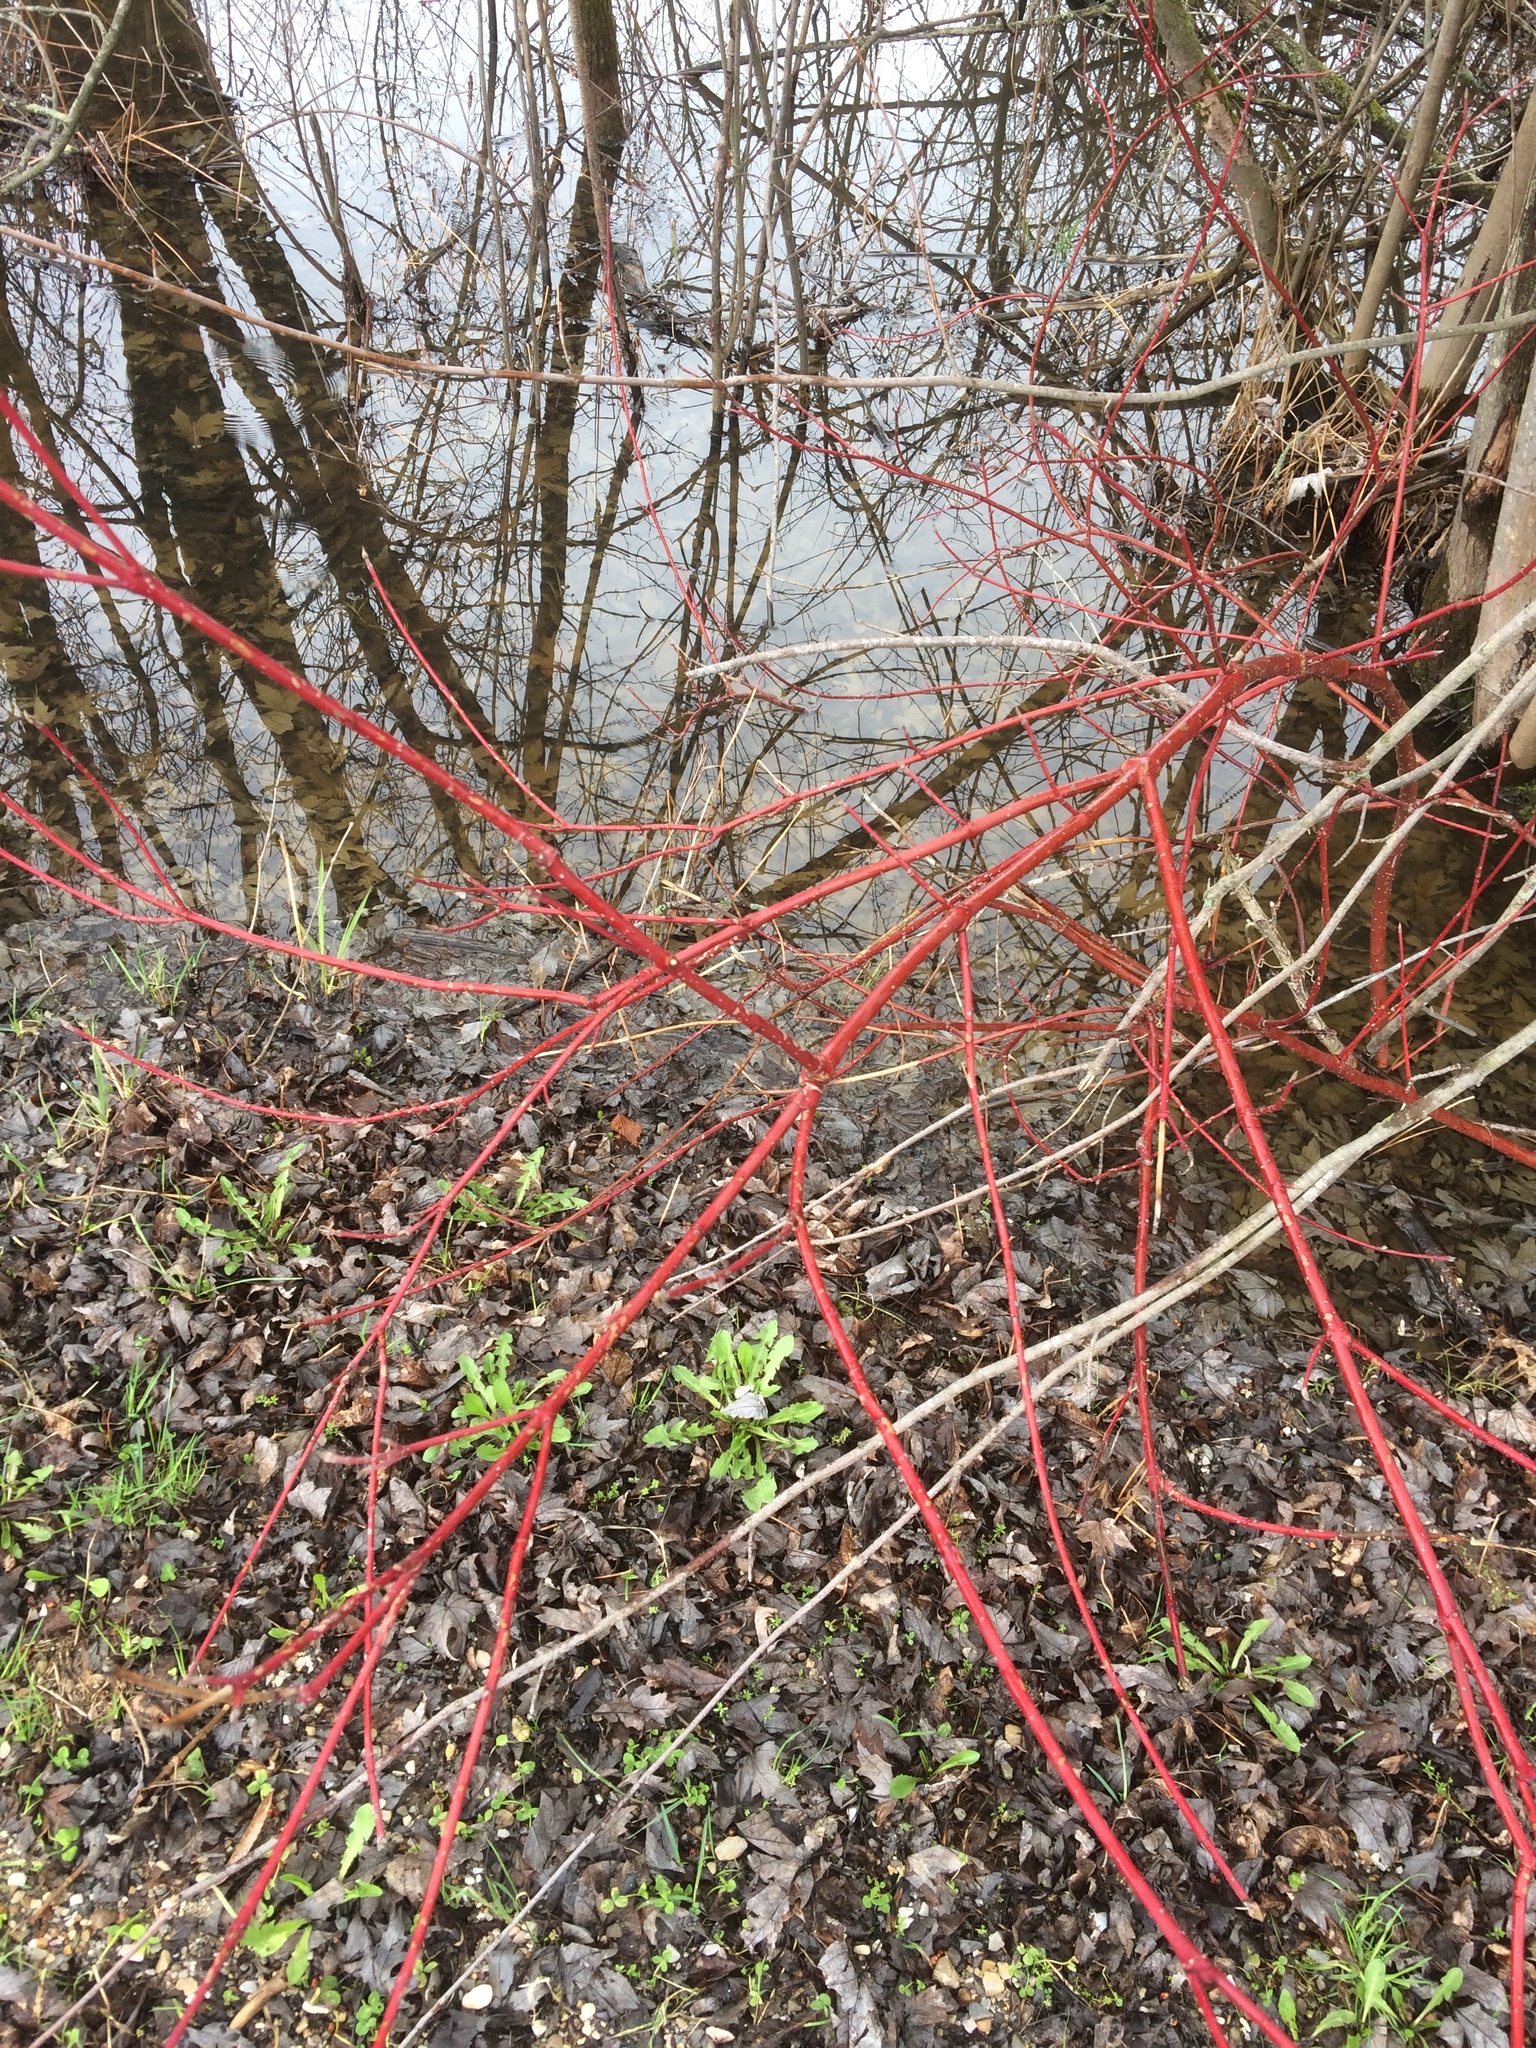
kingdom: Plantae
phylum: Tracheophyta
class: Magnoliopsida
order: Cornales
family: Cornaceae
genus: Cornus
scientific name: Cornus sericea
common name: Red-osier dogwood
